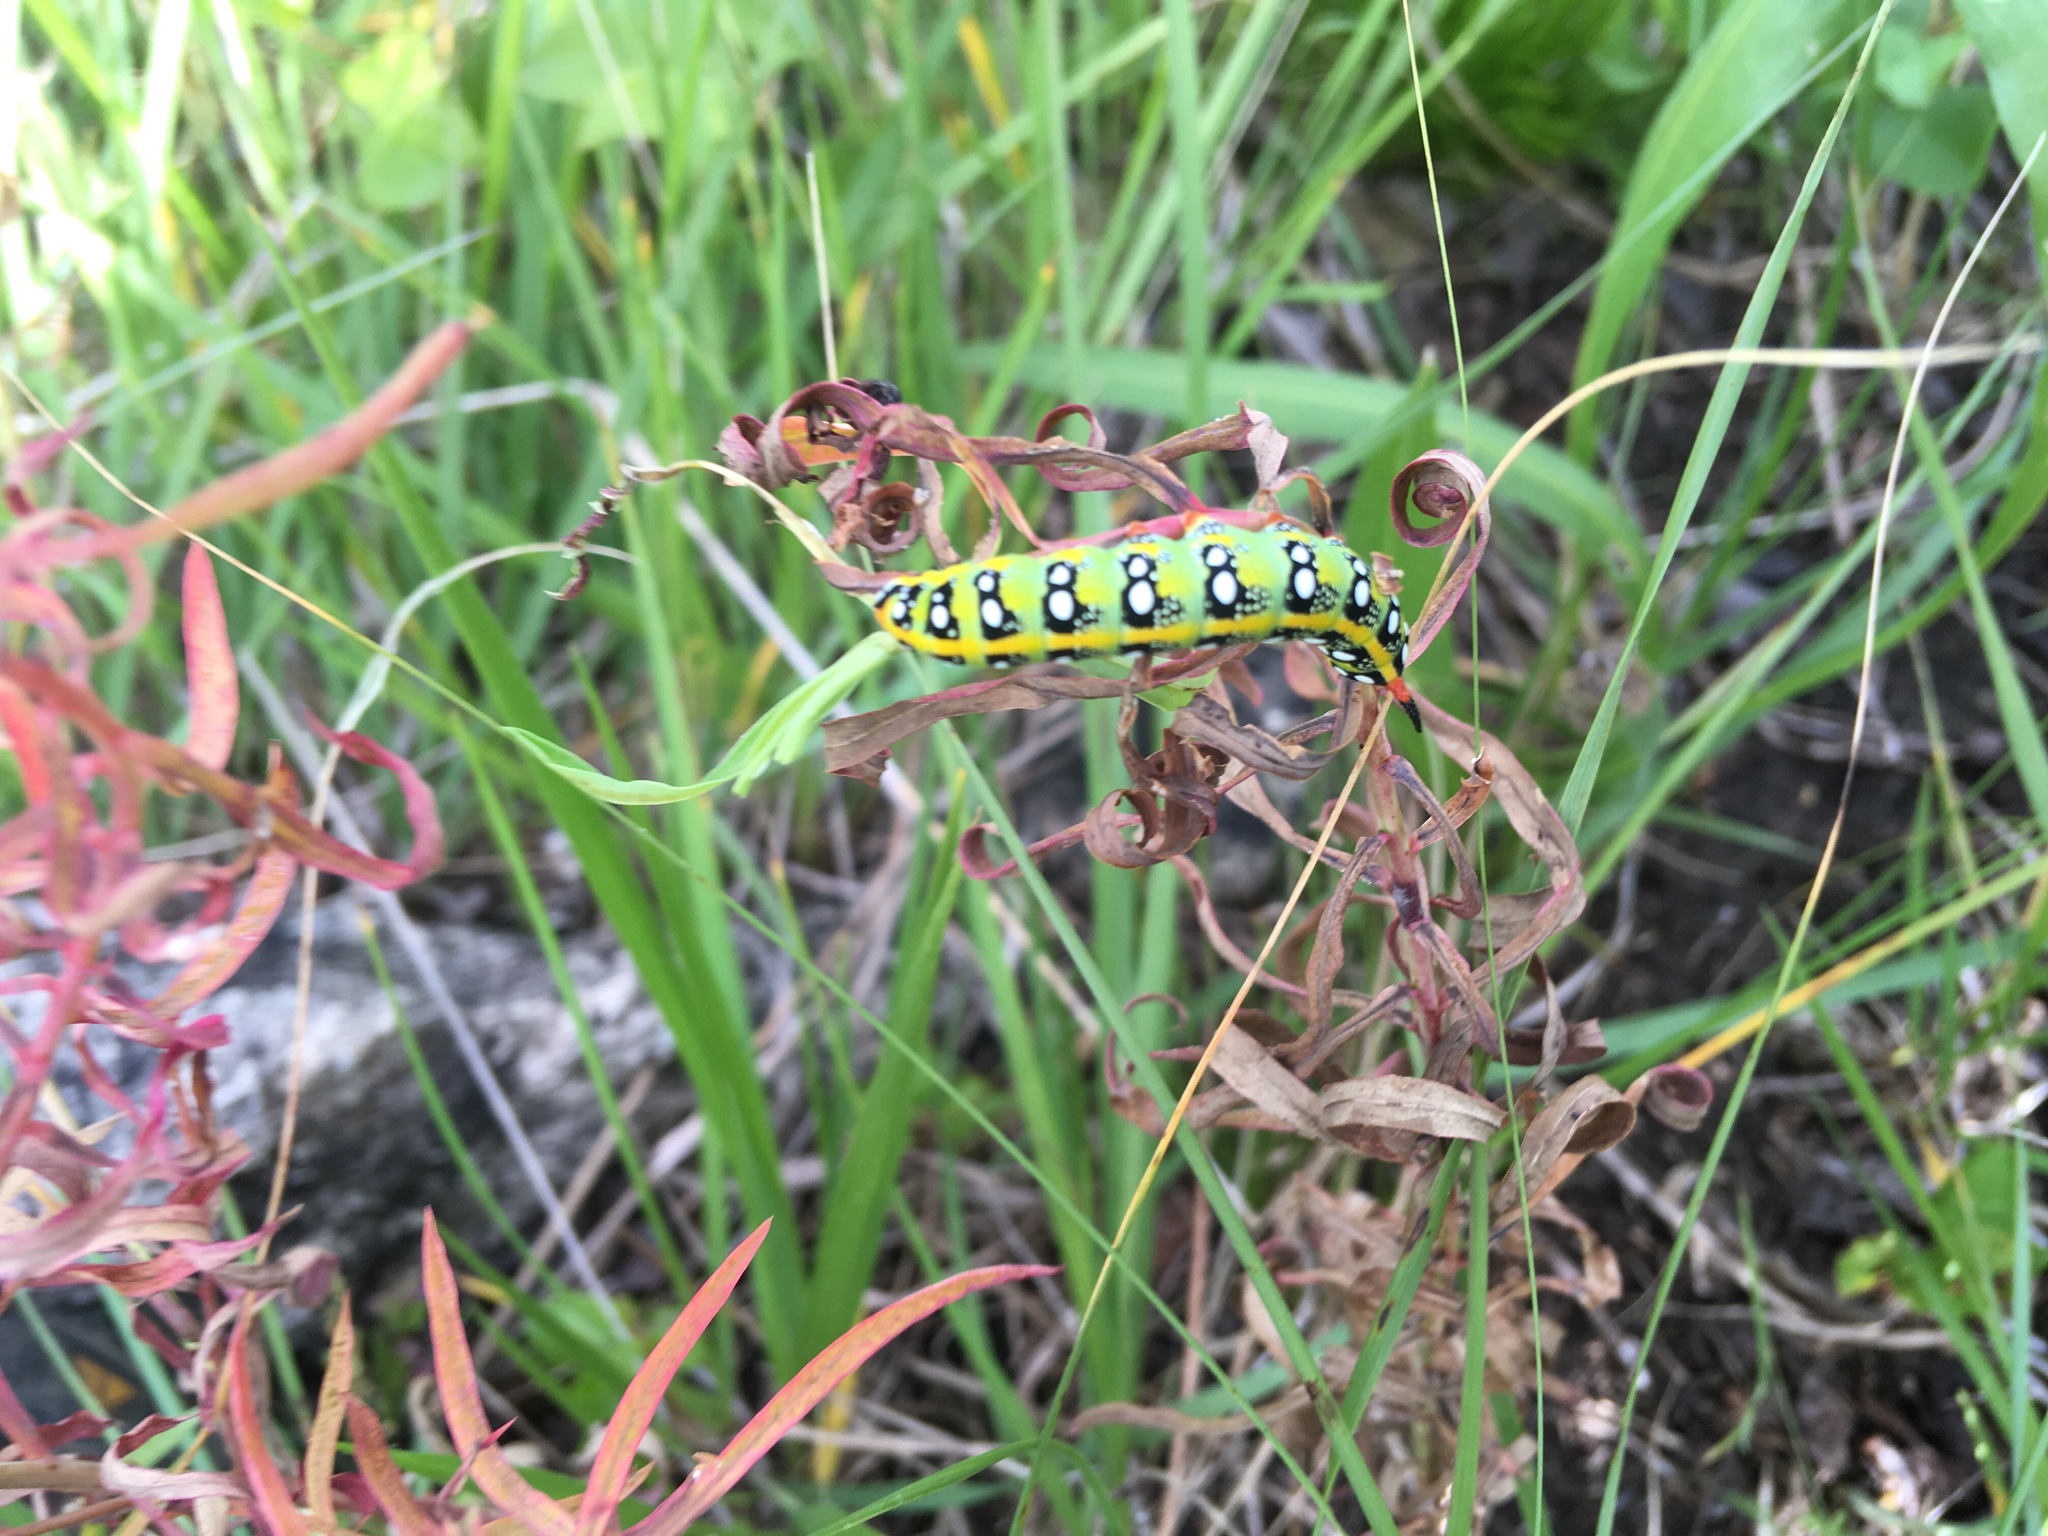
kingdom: Animalia
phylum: Arthropoda
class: Insecta
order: Lepidoptera
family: Sphingidae
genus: Hyles
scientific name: Hyles euphorbiae
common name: Spurge hawk-moth
